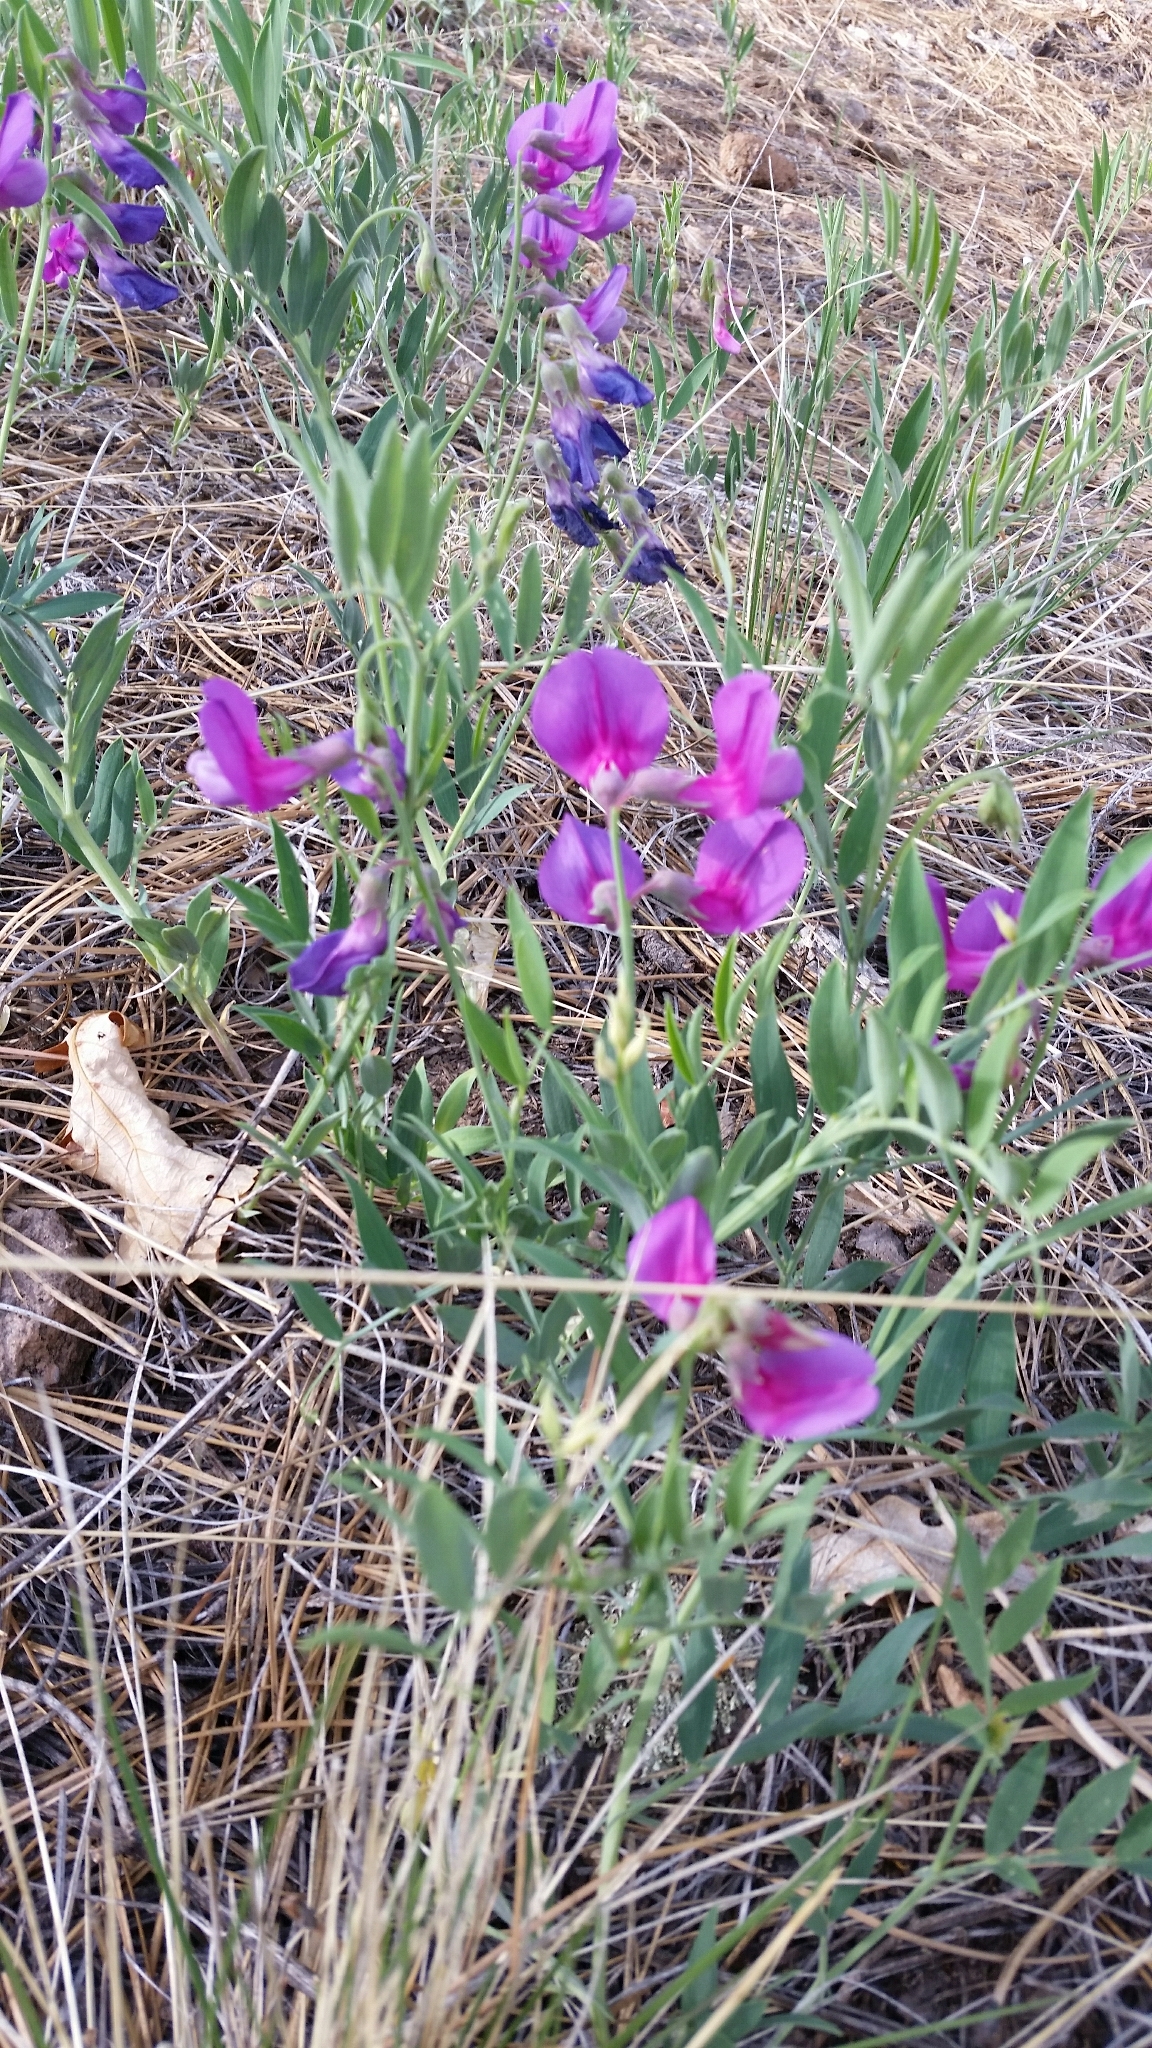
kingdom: Plantae
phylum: Tracheophyta
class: Magnoliopsida
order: Fabales
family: Fabaceae
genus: Lathyrus
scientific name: Lathyrus eucosmus
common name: Semmly vetchling
